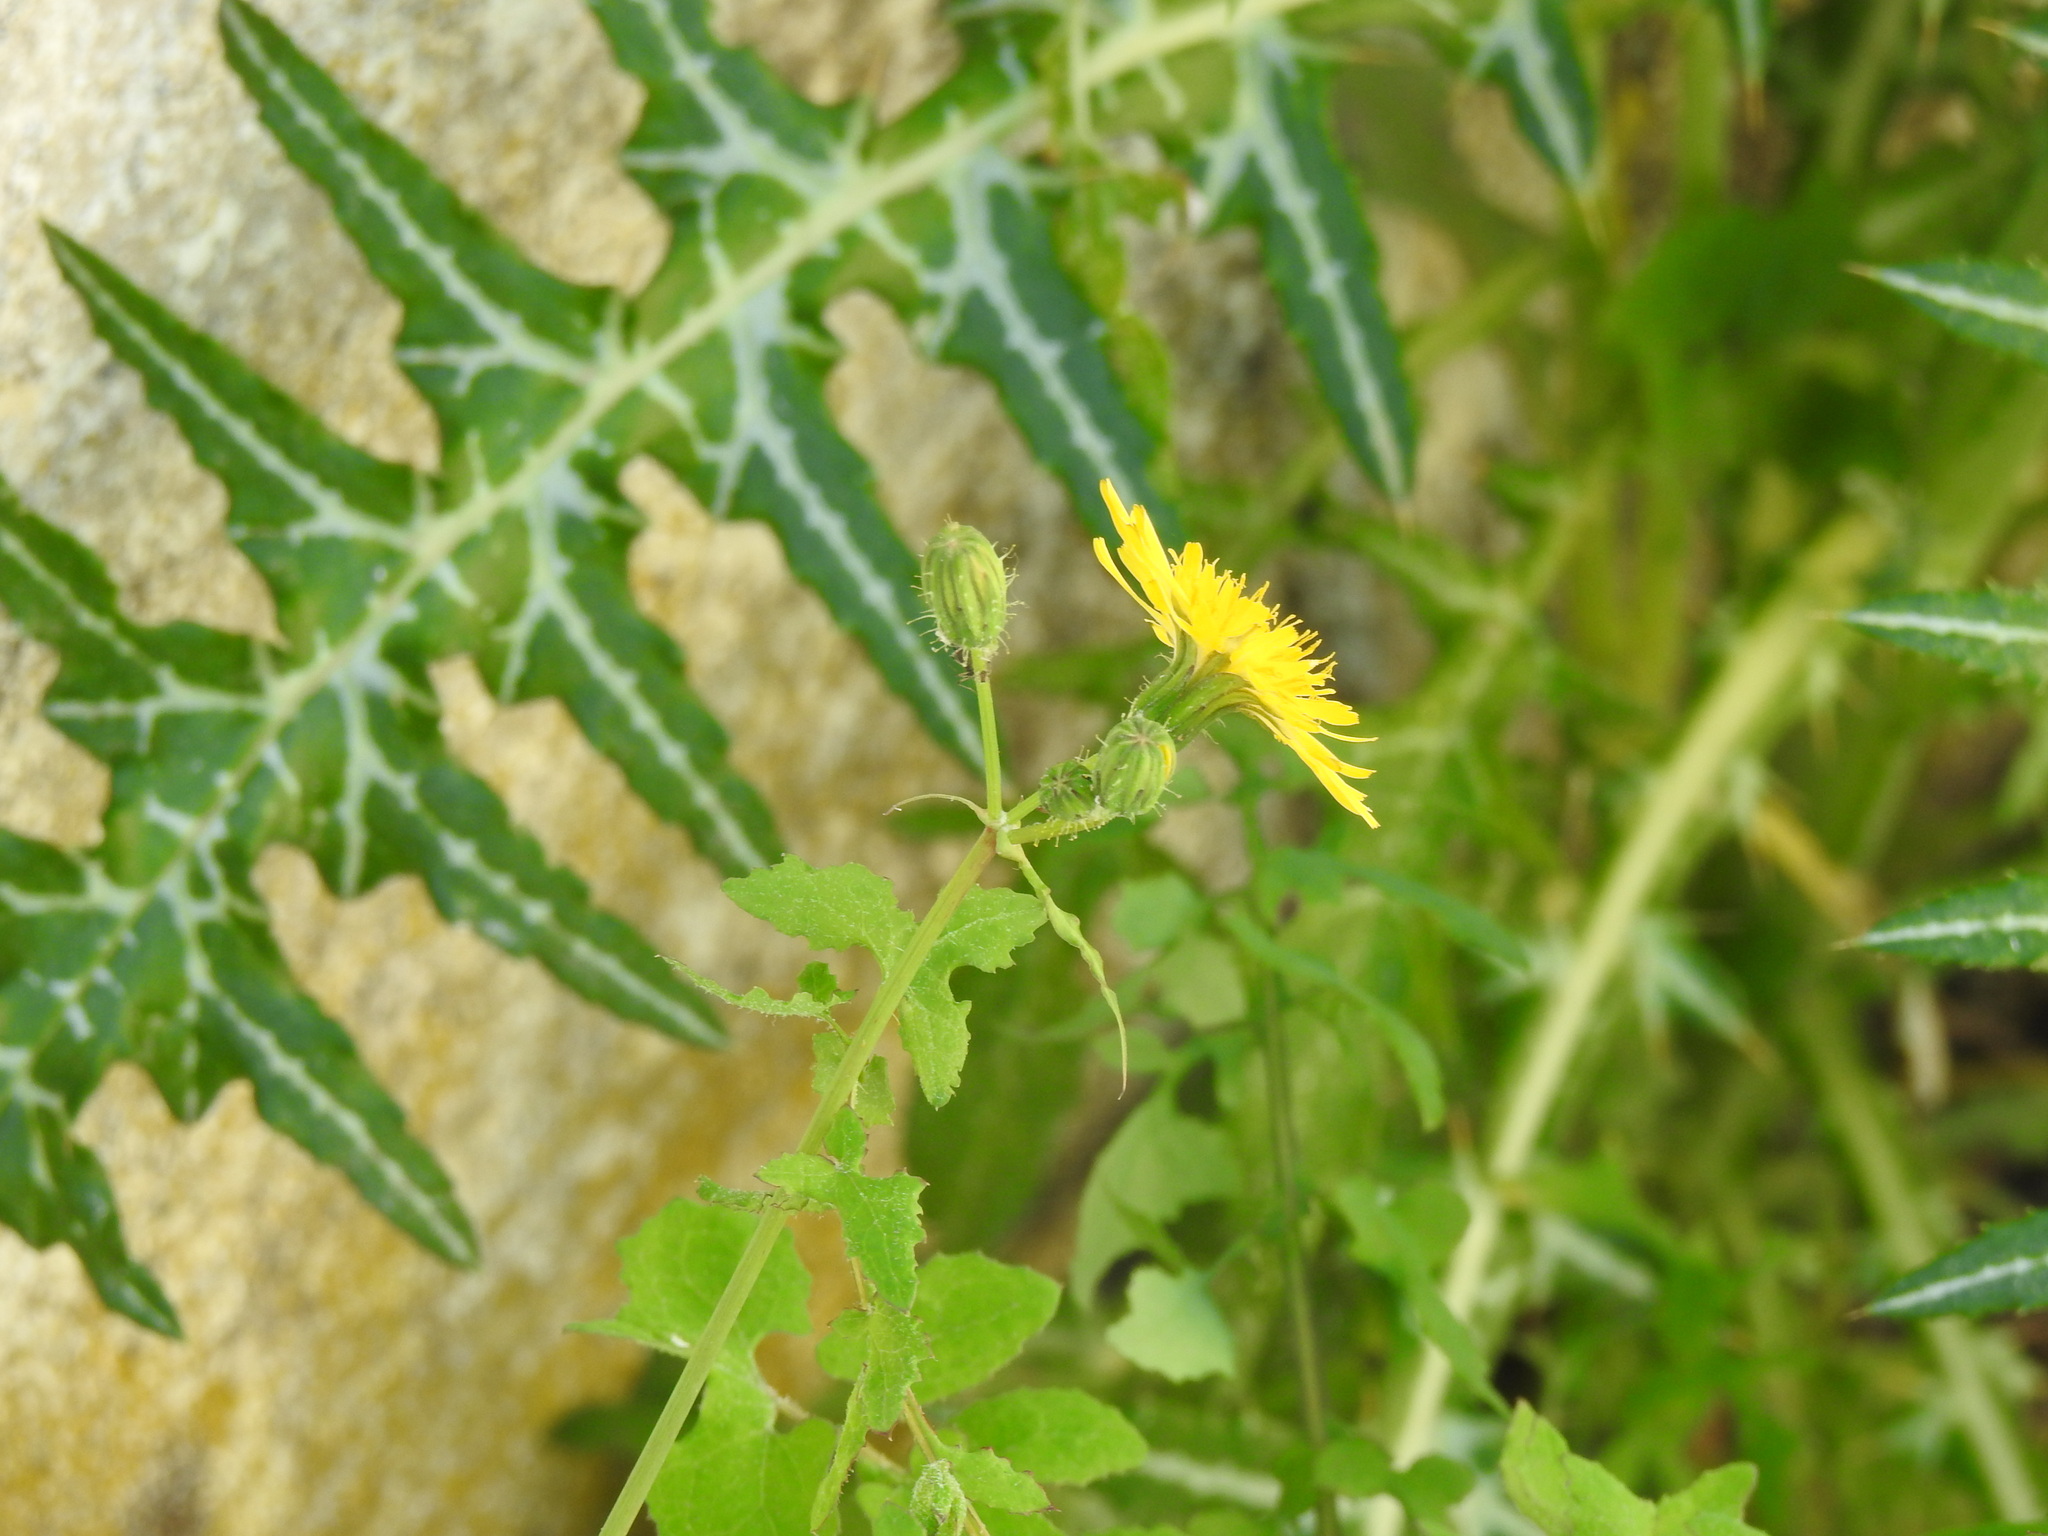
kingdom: Plantae
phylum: Tracheophyta
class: Magnoliopsida
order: Asterales
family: Asteraceae
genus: Sonchus
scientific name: Sonchus tenerrimus
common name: Clammy sowthistle
